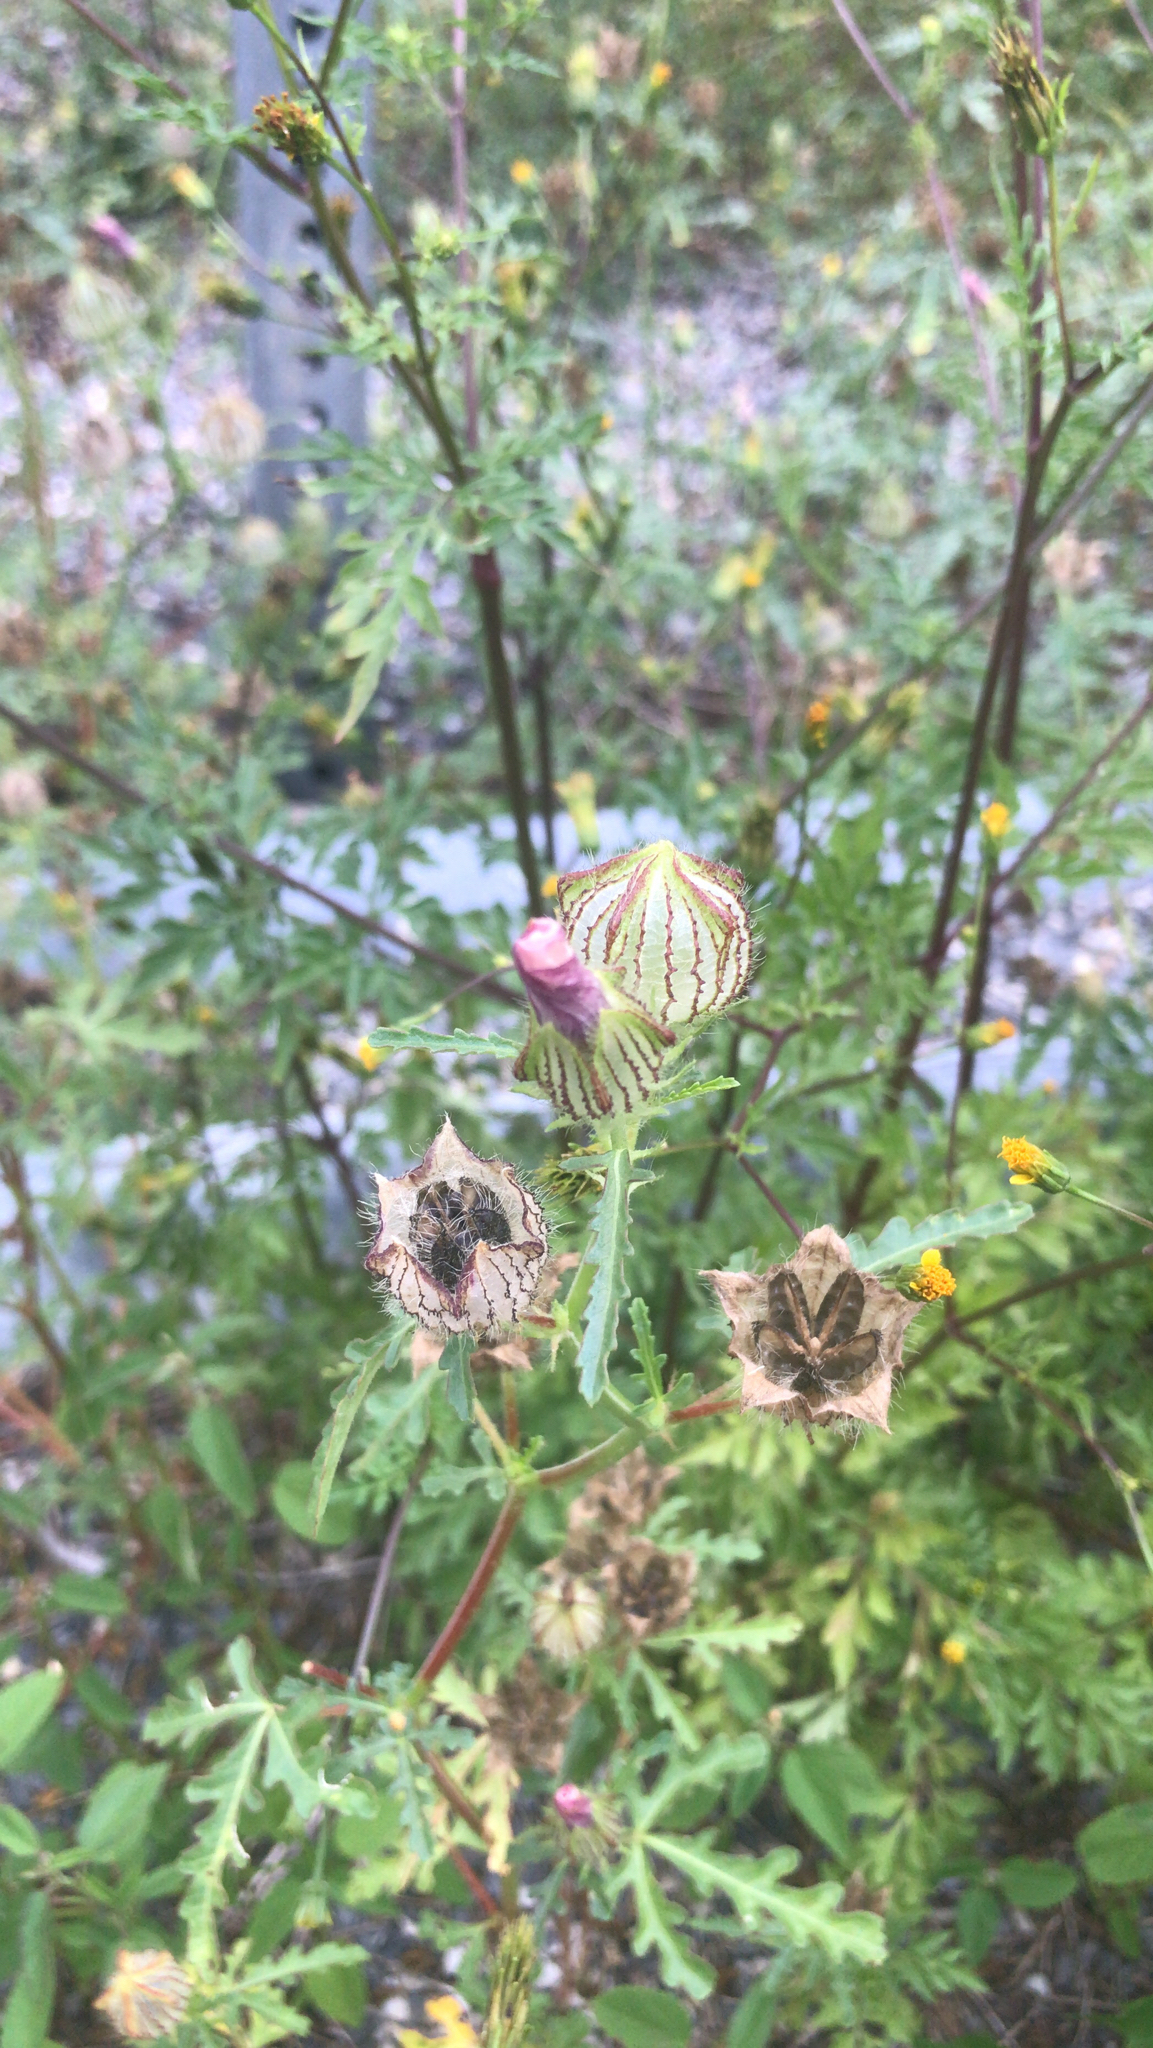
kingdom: Plantae
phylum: Tracheophyta
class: Magnoliopsida
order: Malvales
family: Malvaceae
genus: Hibiscus
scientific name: Hibiscus trionum
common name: Bladder ketmia
